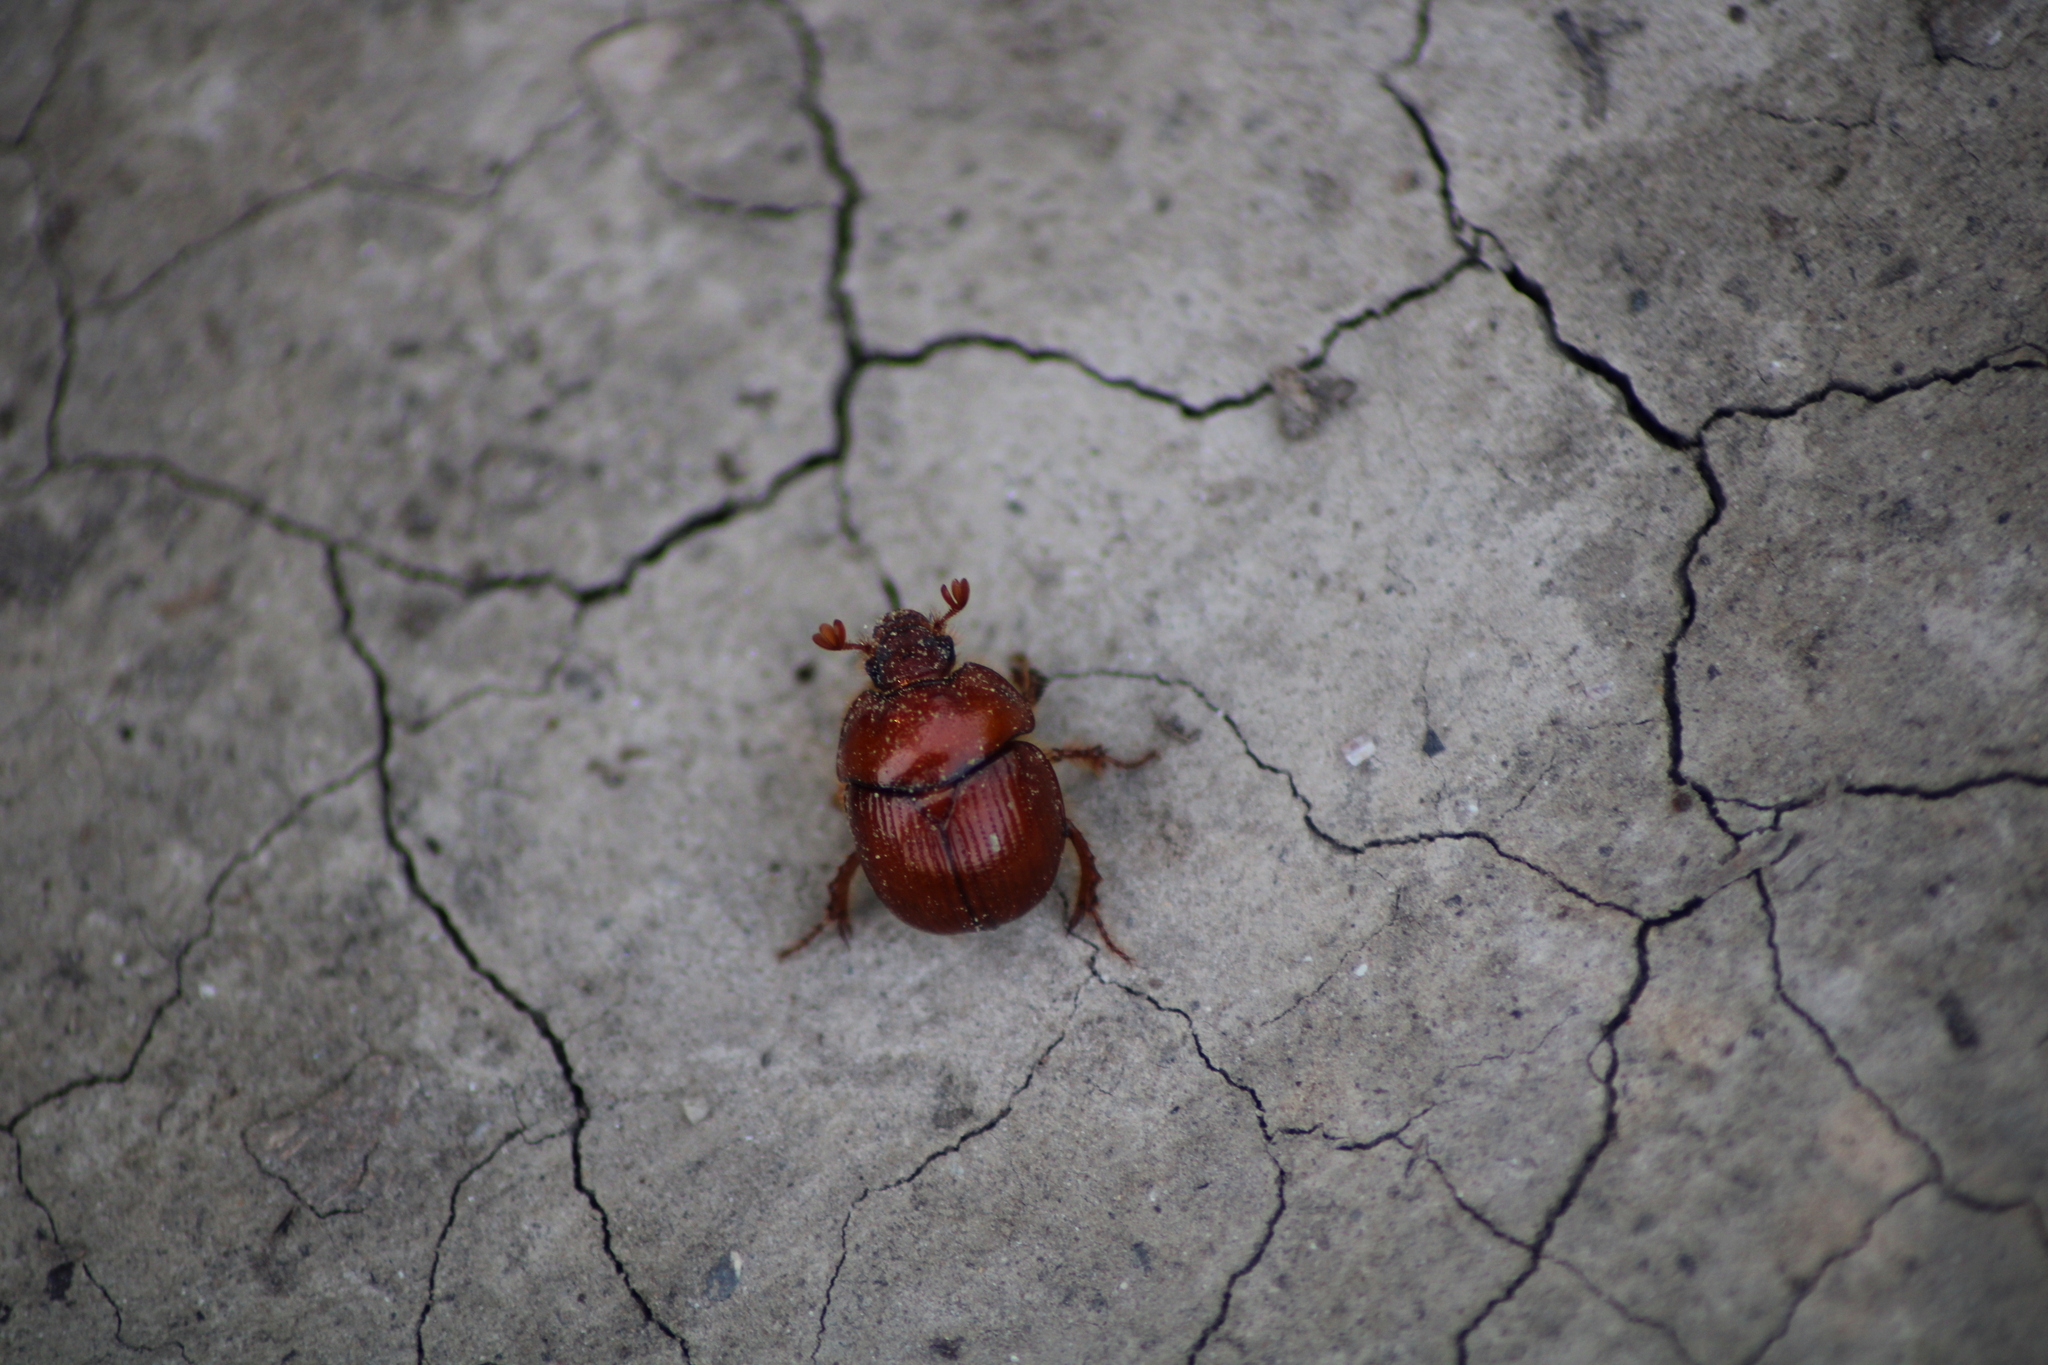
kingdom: Animalia
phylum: Arthropoda
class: Insecta
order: Coleoptera
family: Geotrupidae
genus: Bolbelasmus
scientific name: Bolbelasmus unicornis
